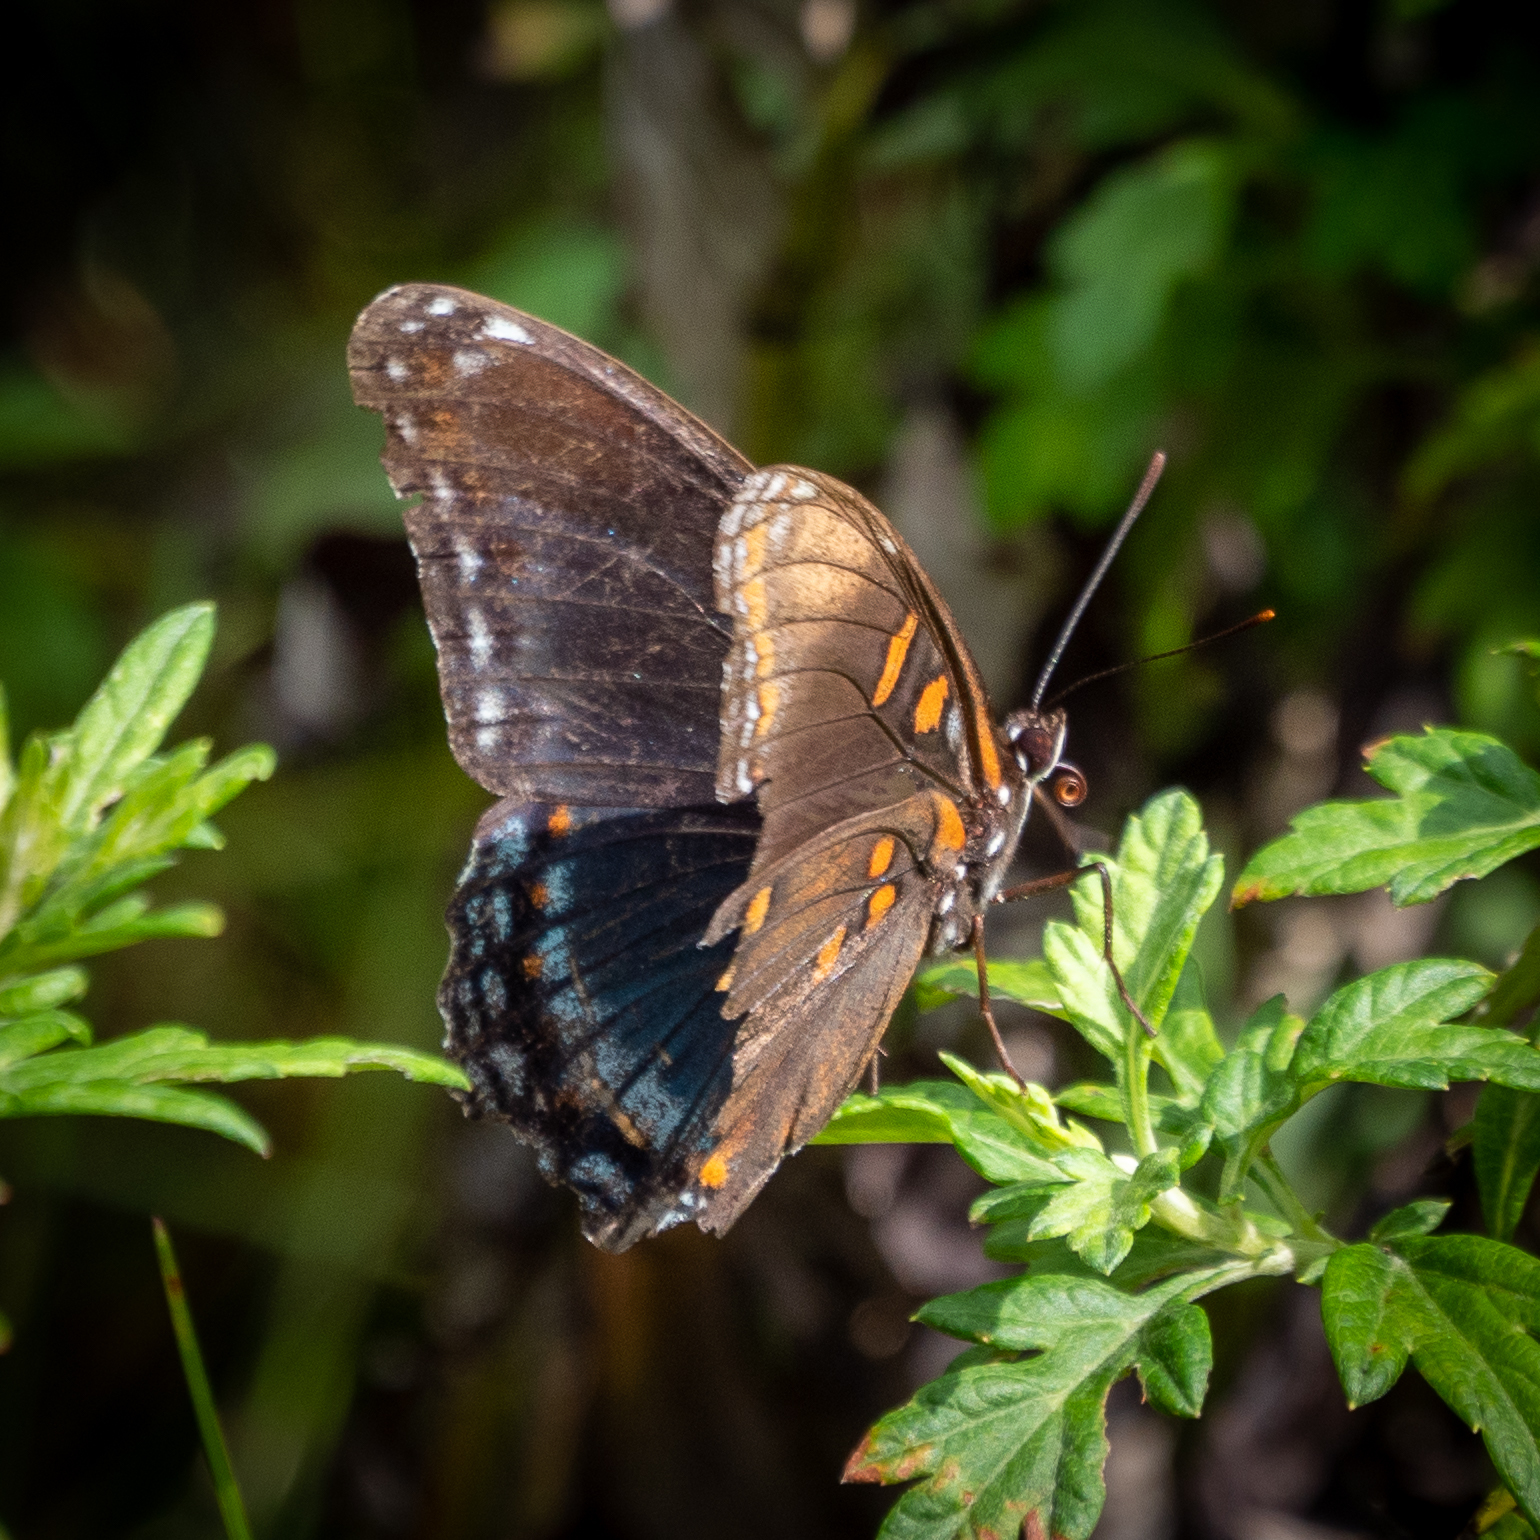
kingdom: Animalia
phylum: Arthropoda
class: Insecta
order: Lepidoptera
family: Nymphalidae
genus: Limenitis
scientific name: Limenitis arthemis
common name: Red-spotted admiral
